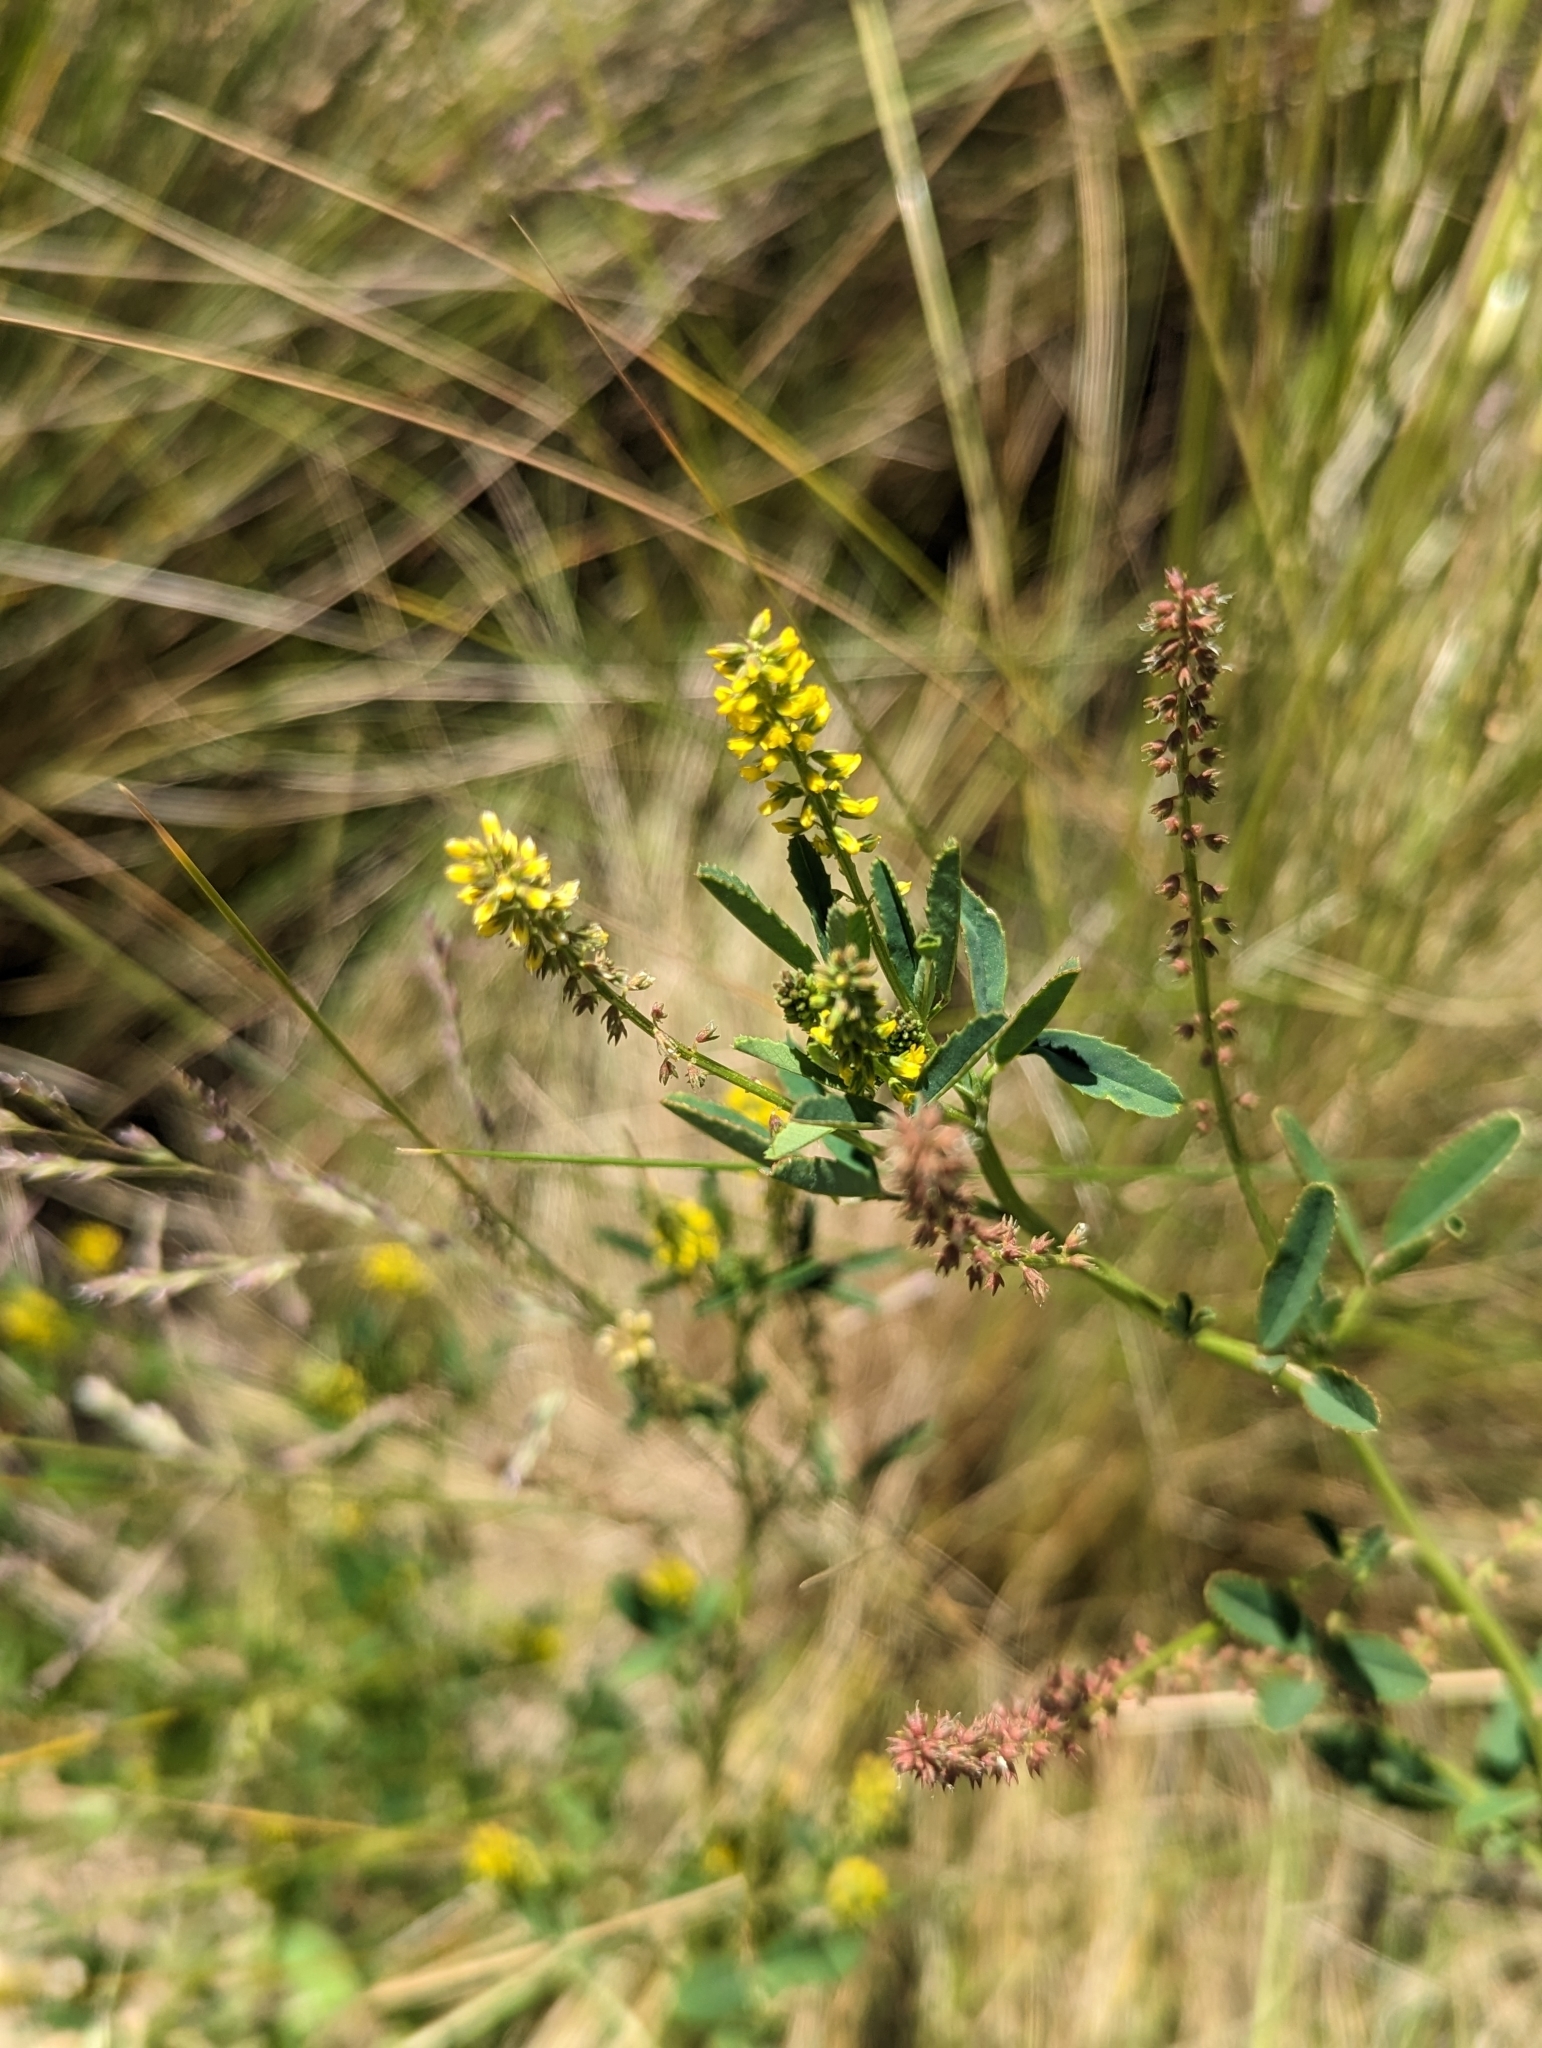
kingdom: Plantae
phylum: Tracheophyta
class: Magnoliopsida
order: Fabales
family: Fabaceae
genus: Melilotus
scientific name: Melilotus indicus
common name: Small melilot
